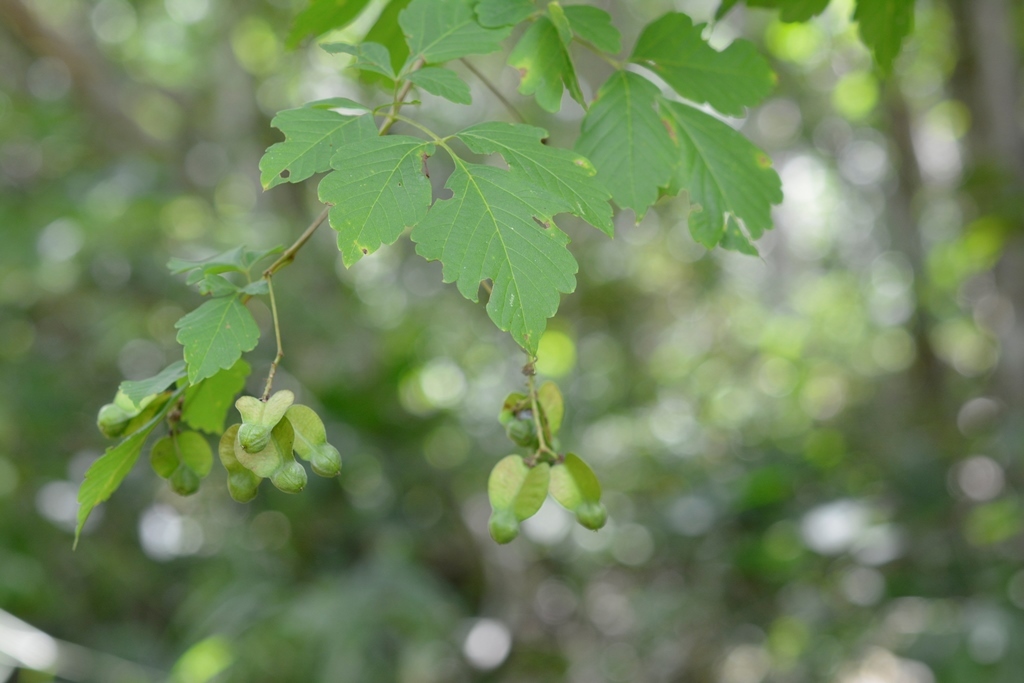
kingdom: Plantae
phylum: Tracheophyta
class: Magnoliopsida
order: Sapindales
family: Sapindaceae
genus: Serjania
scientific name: Serjania racemosa
